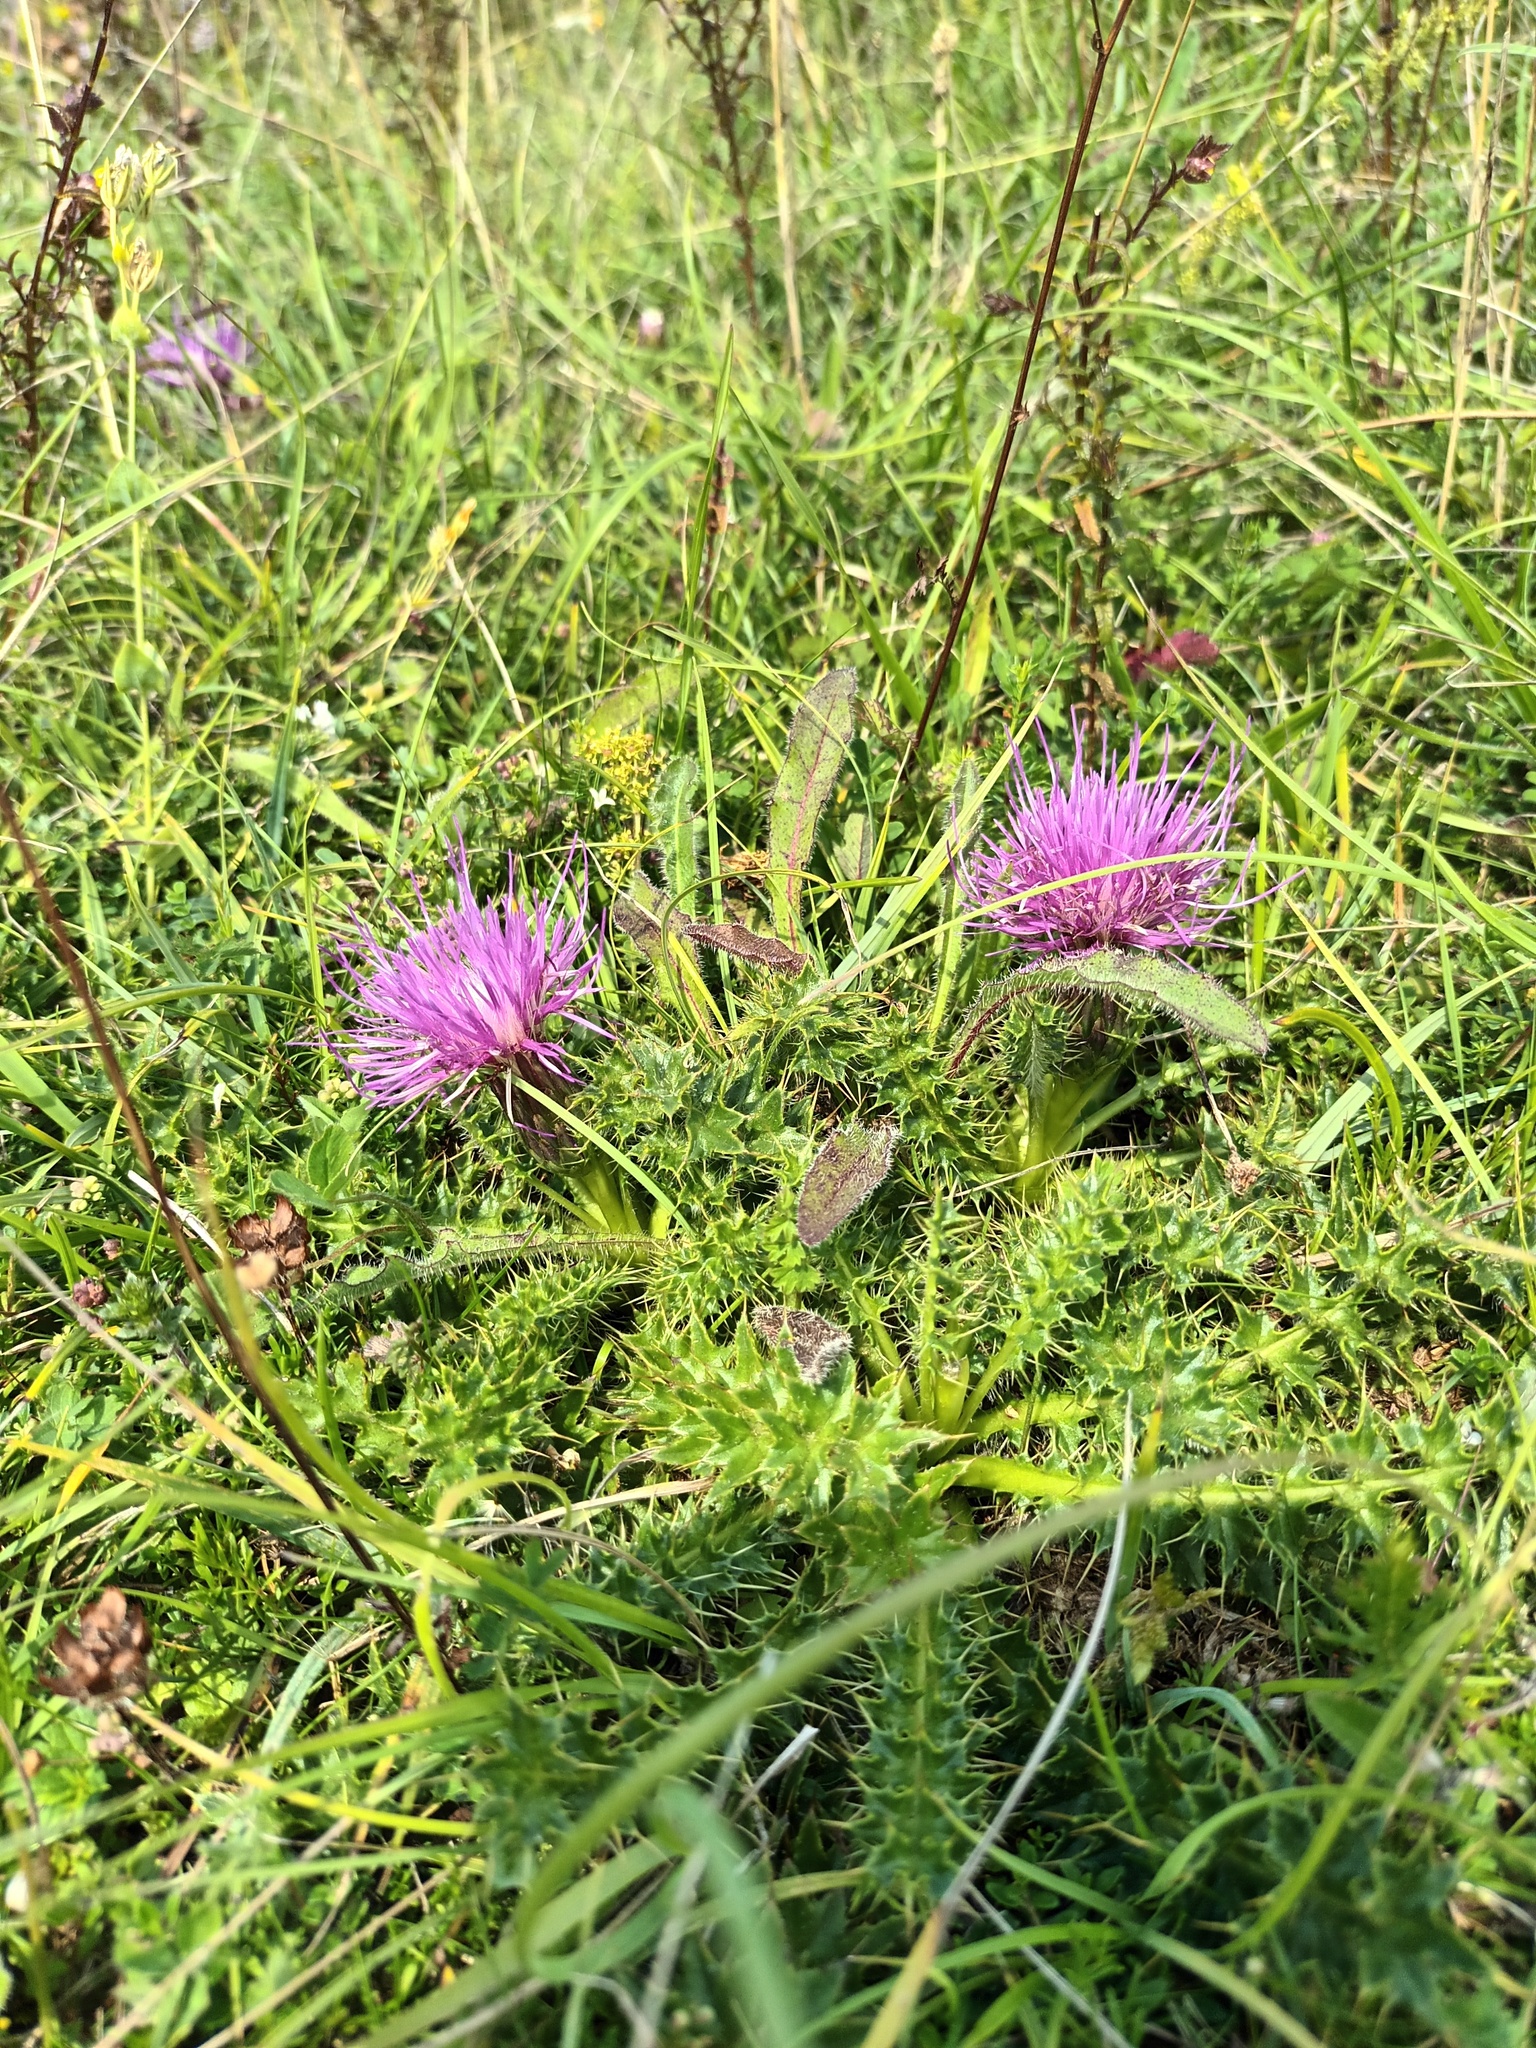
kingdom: Plantae
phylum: Tracheophyta
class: Magnoliopsida
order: Asterales
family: Asteraceae
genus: Cirsium
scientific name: Cirsium acaulon
